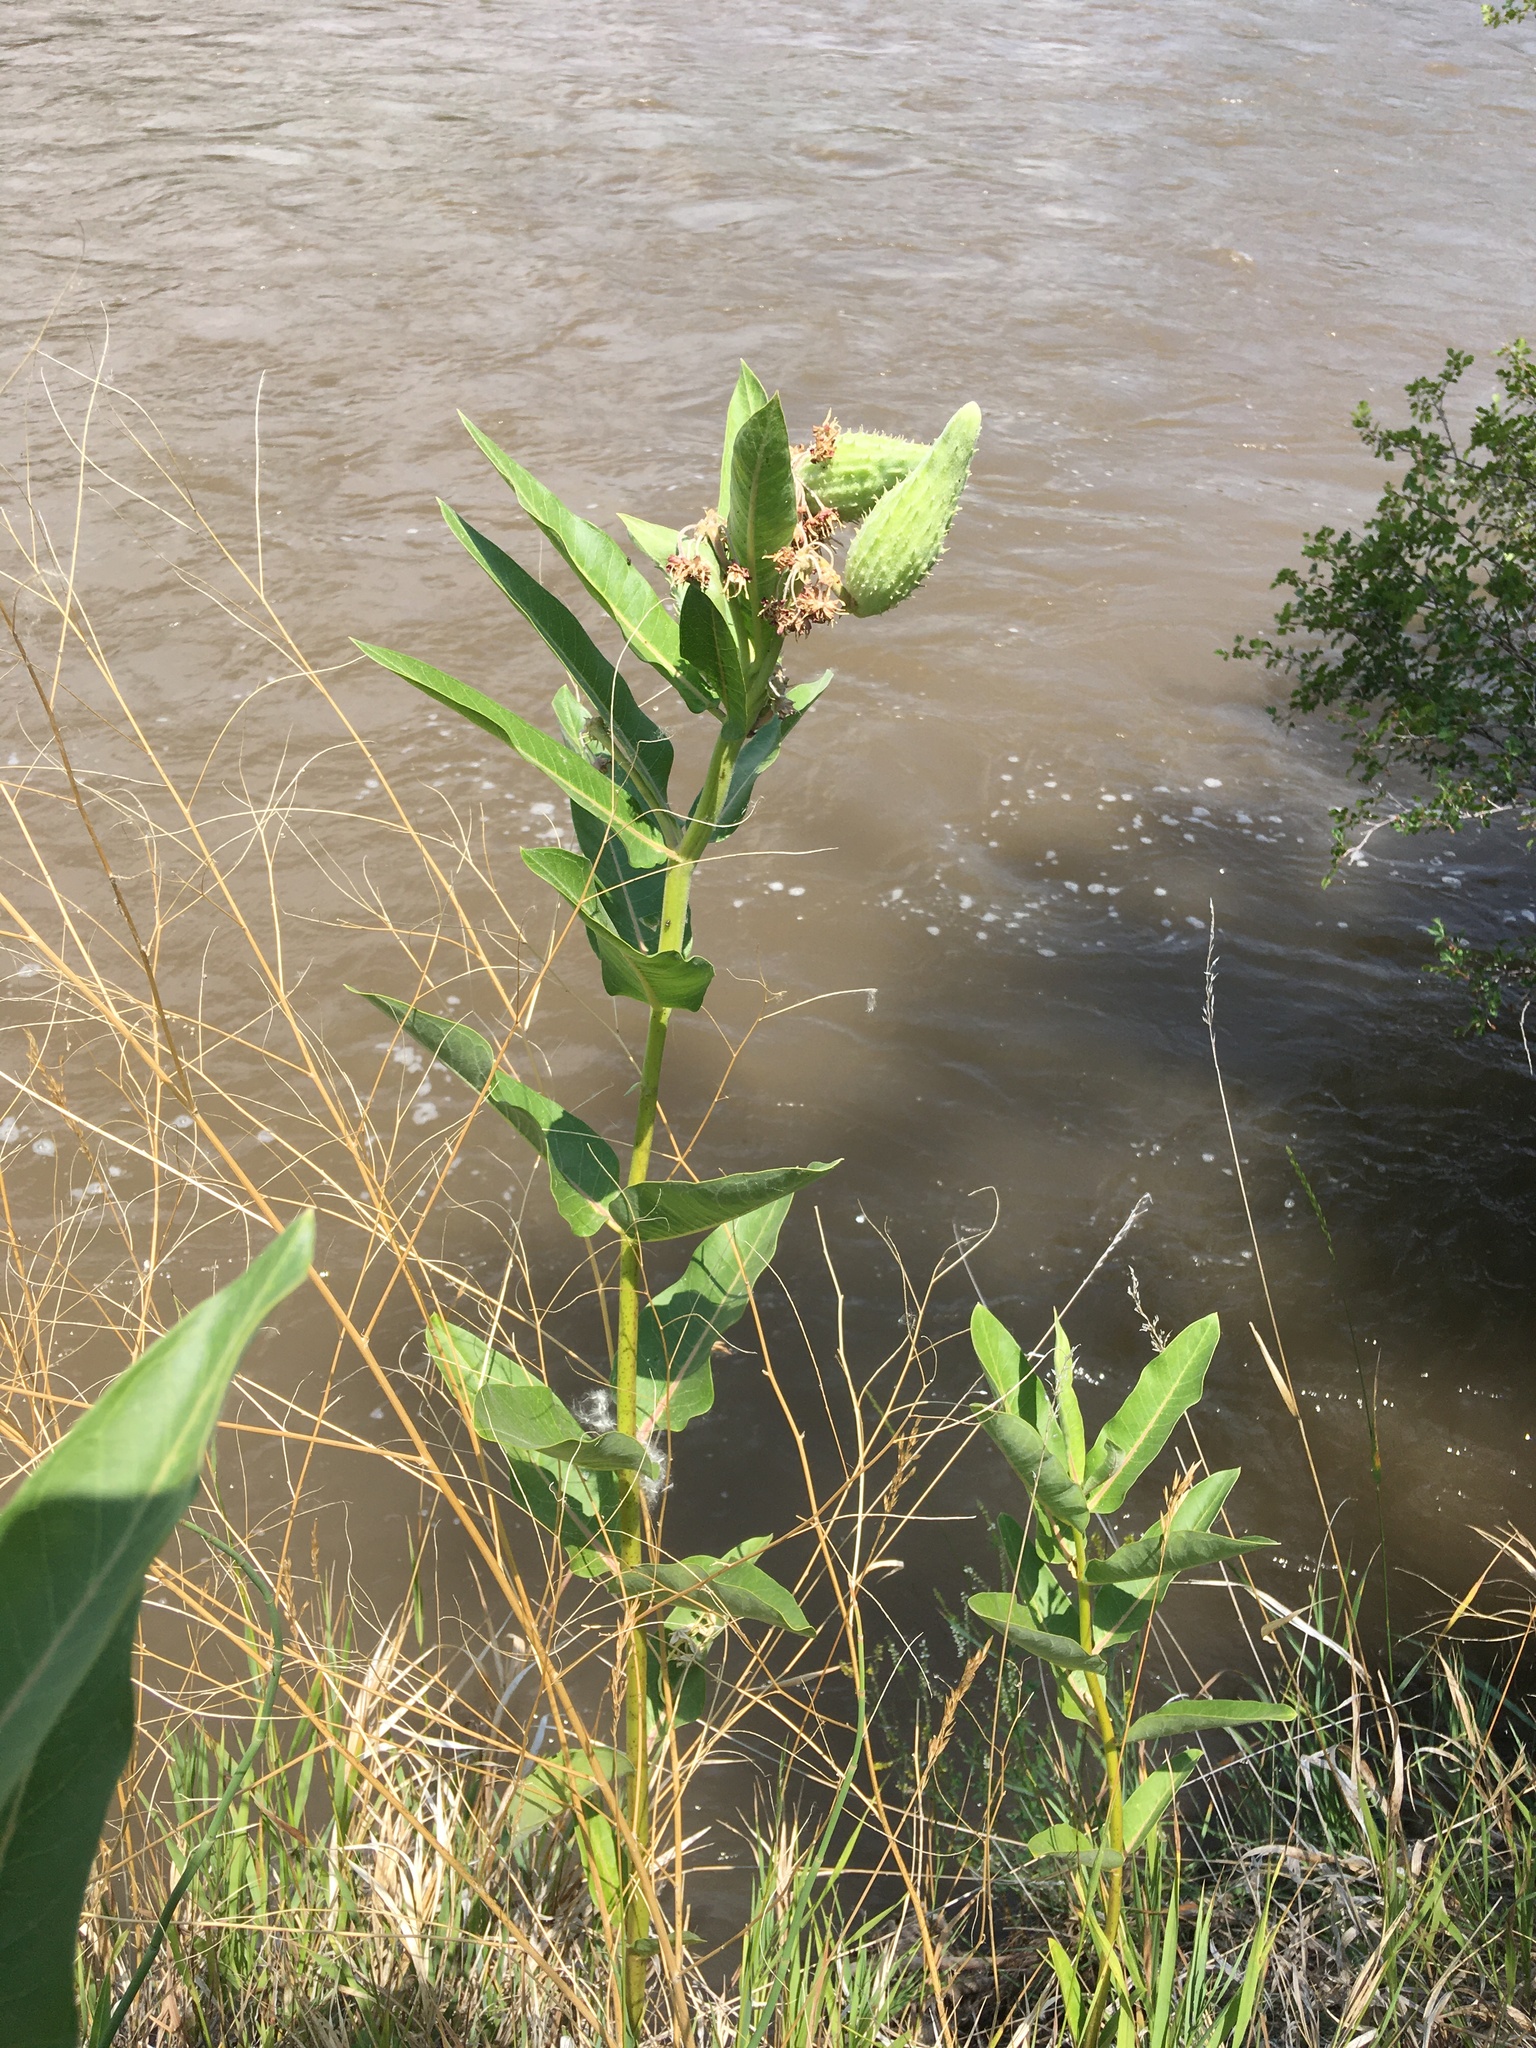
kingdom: Plantae
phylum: Tracheophyta
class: Magnoliopsida
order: Gentianales
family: Apocynaceae
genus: Asclepias
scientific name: Asclepias speciosa
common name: Showy milkweed
